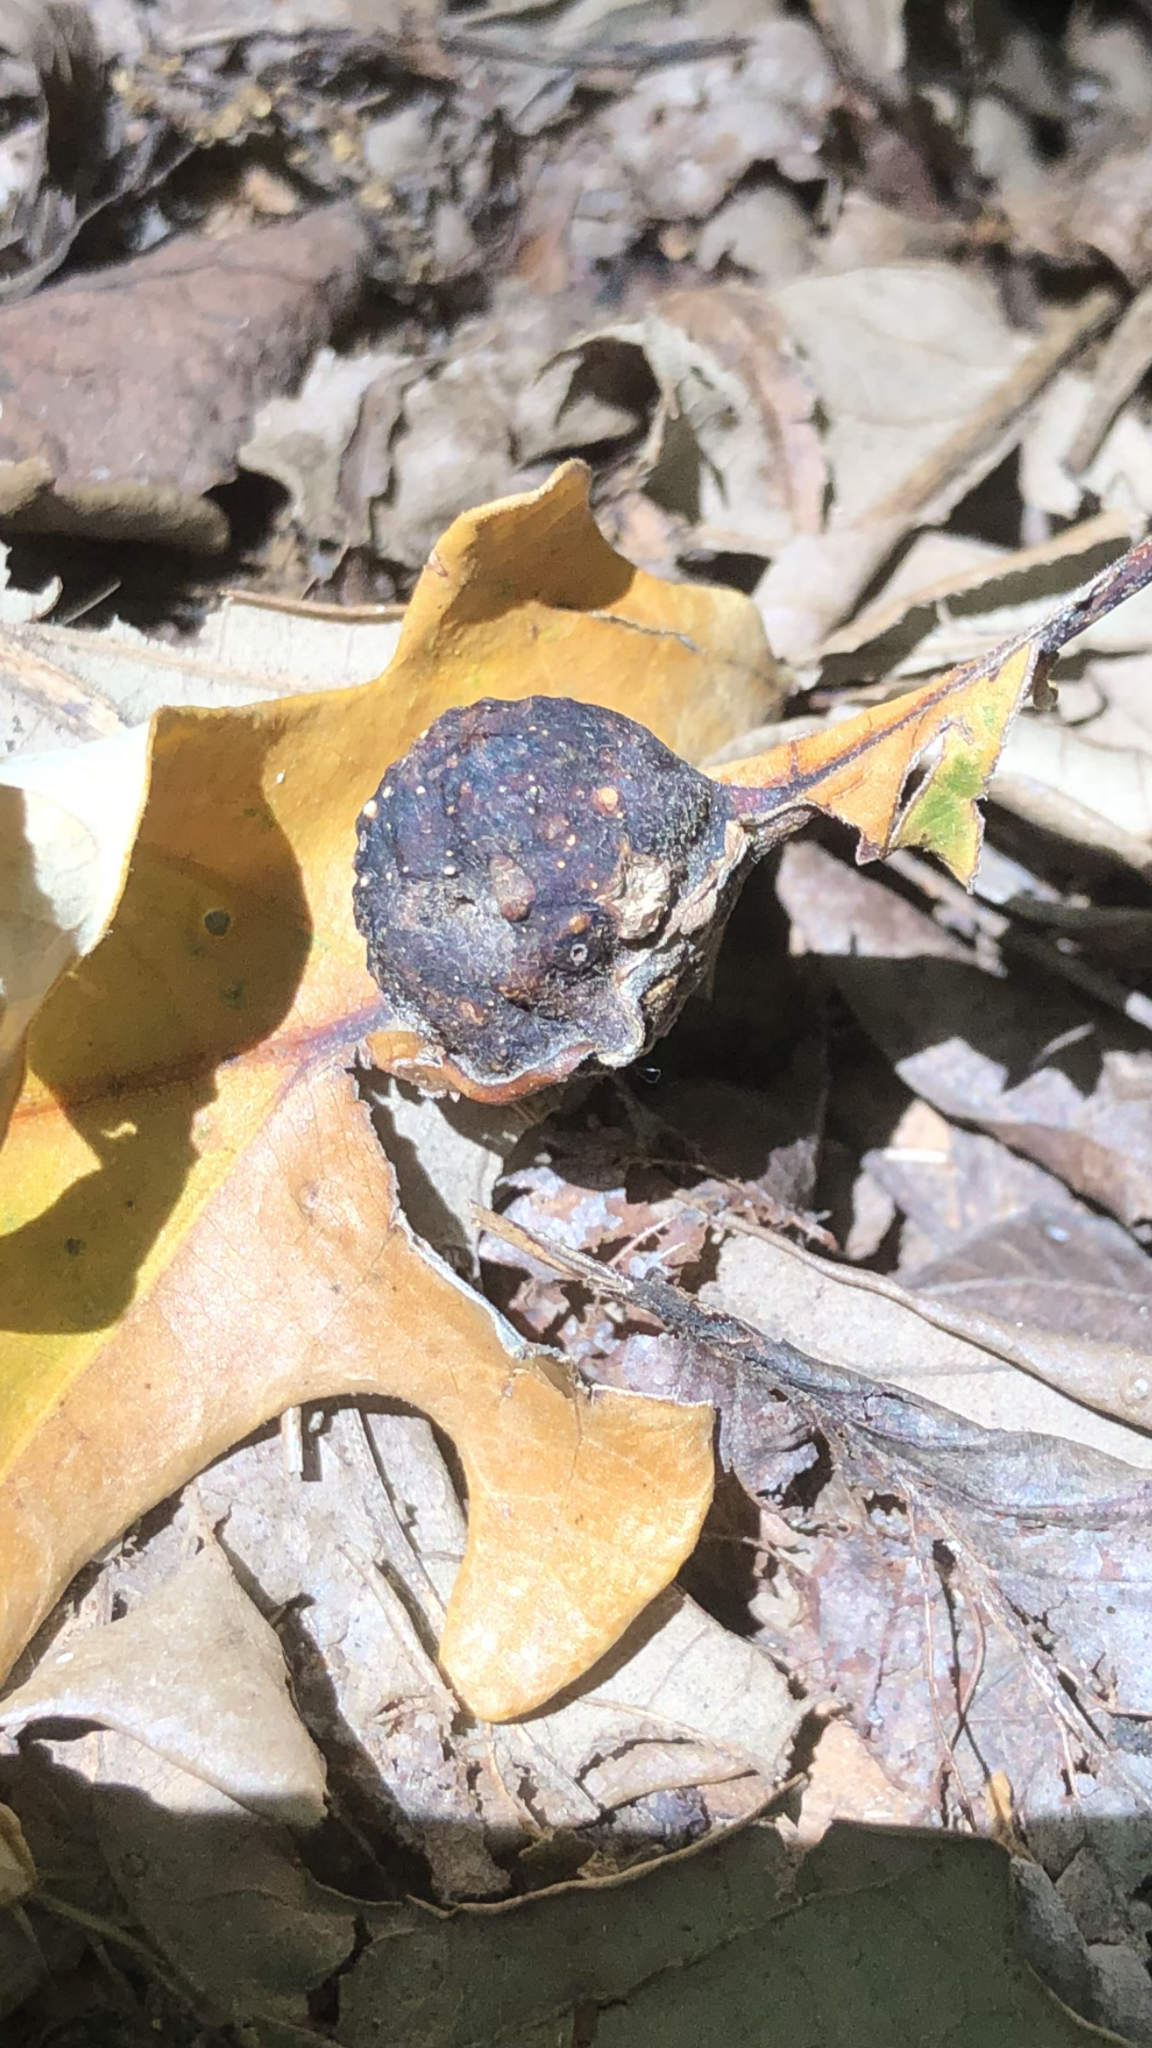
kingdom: Animalia
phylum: Arthropoda
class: Insecta
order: Hymenoptera
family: Cynipidae
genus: Andricus
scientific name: Andricus
